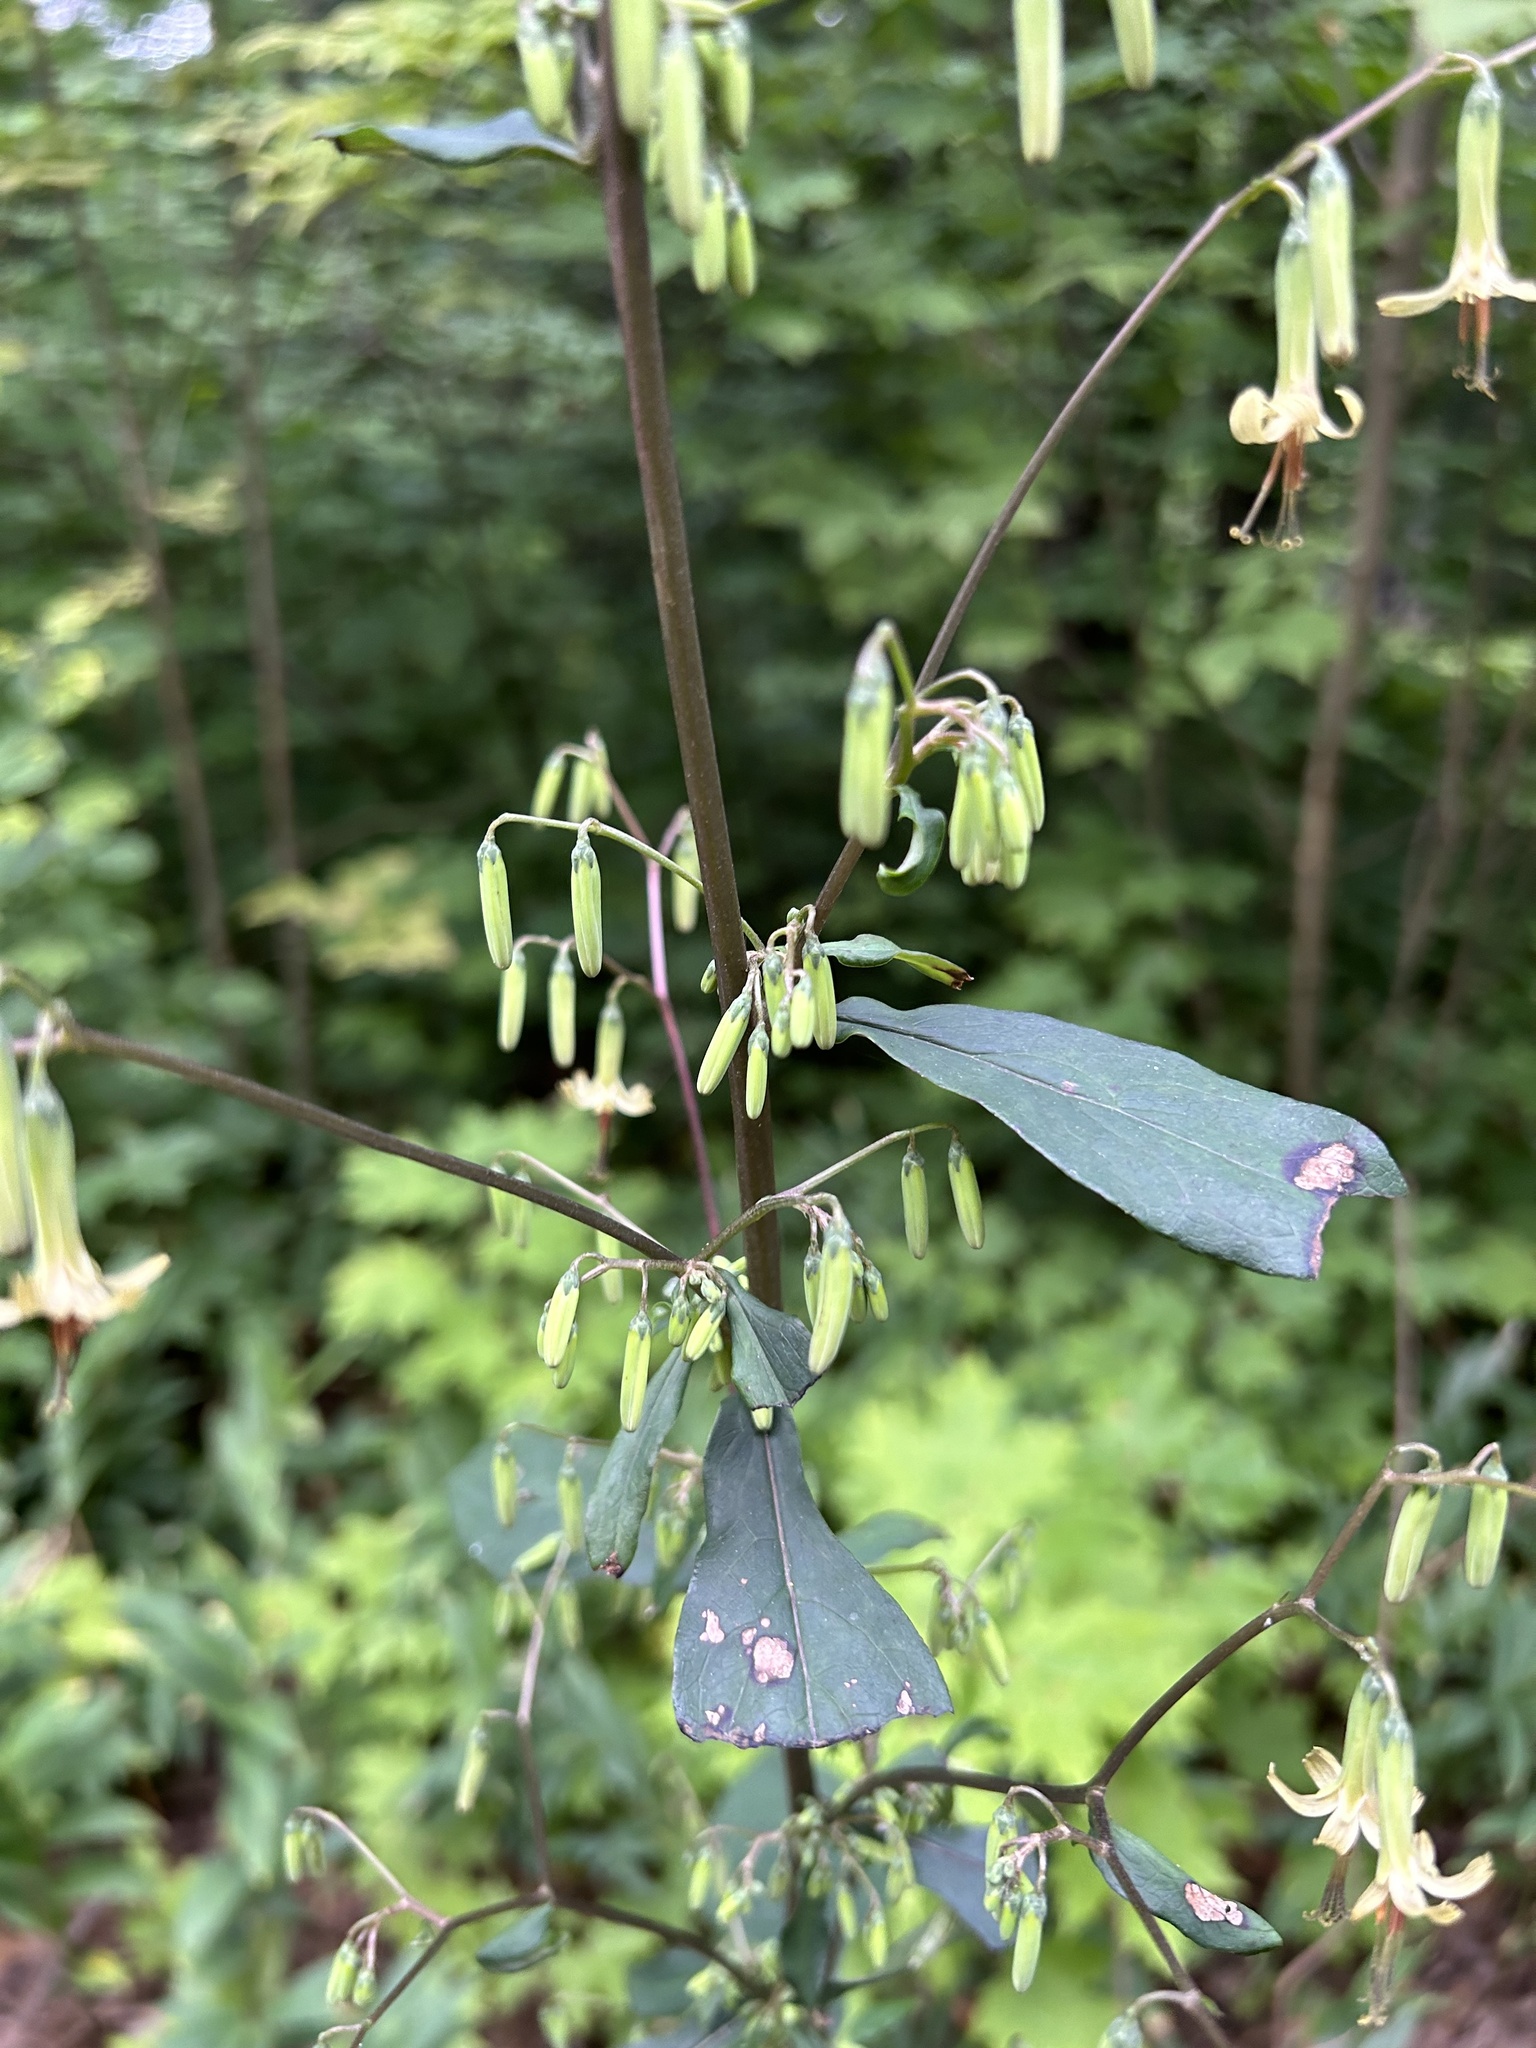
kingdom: Plantae
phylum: Tracheophyta
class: Magnoliopsida
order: Asterales
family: Asteraceae
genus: Nabalus
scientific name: Nabalus altissima
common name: Tall rattlesnakeroot
